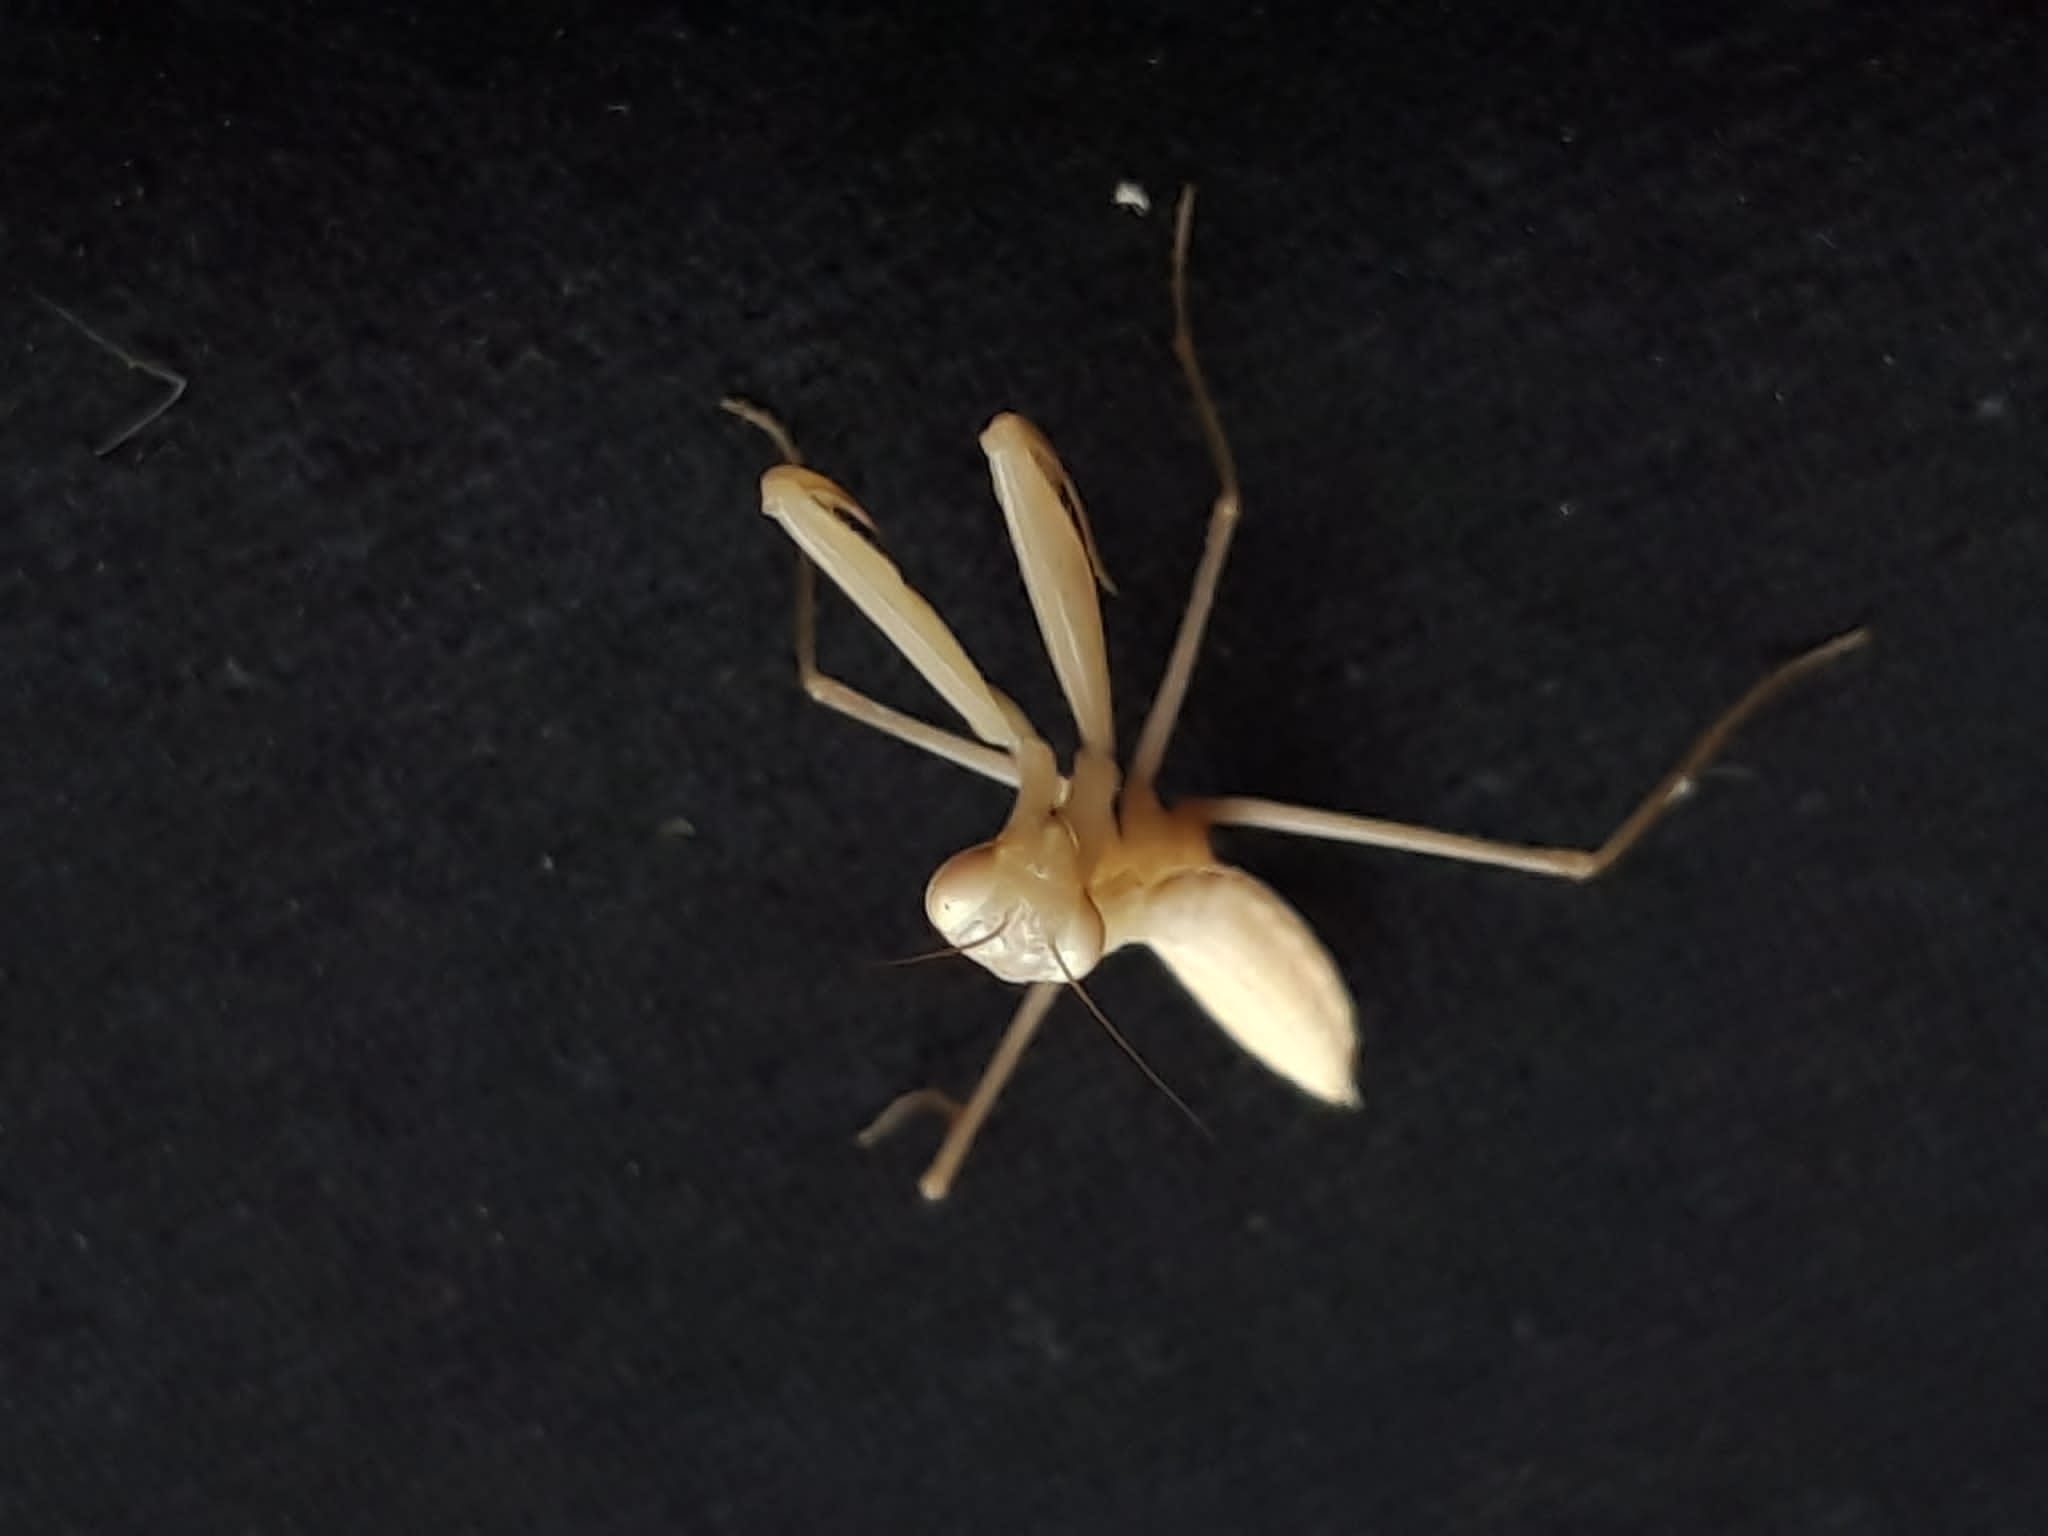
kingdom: Animalia
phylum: Arthropoda
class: Insecta
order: Mantodea
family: Mantidae
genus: Mantis
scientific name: Mantis religiosa
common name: Praying mantis
